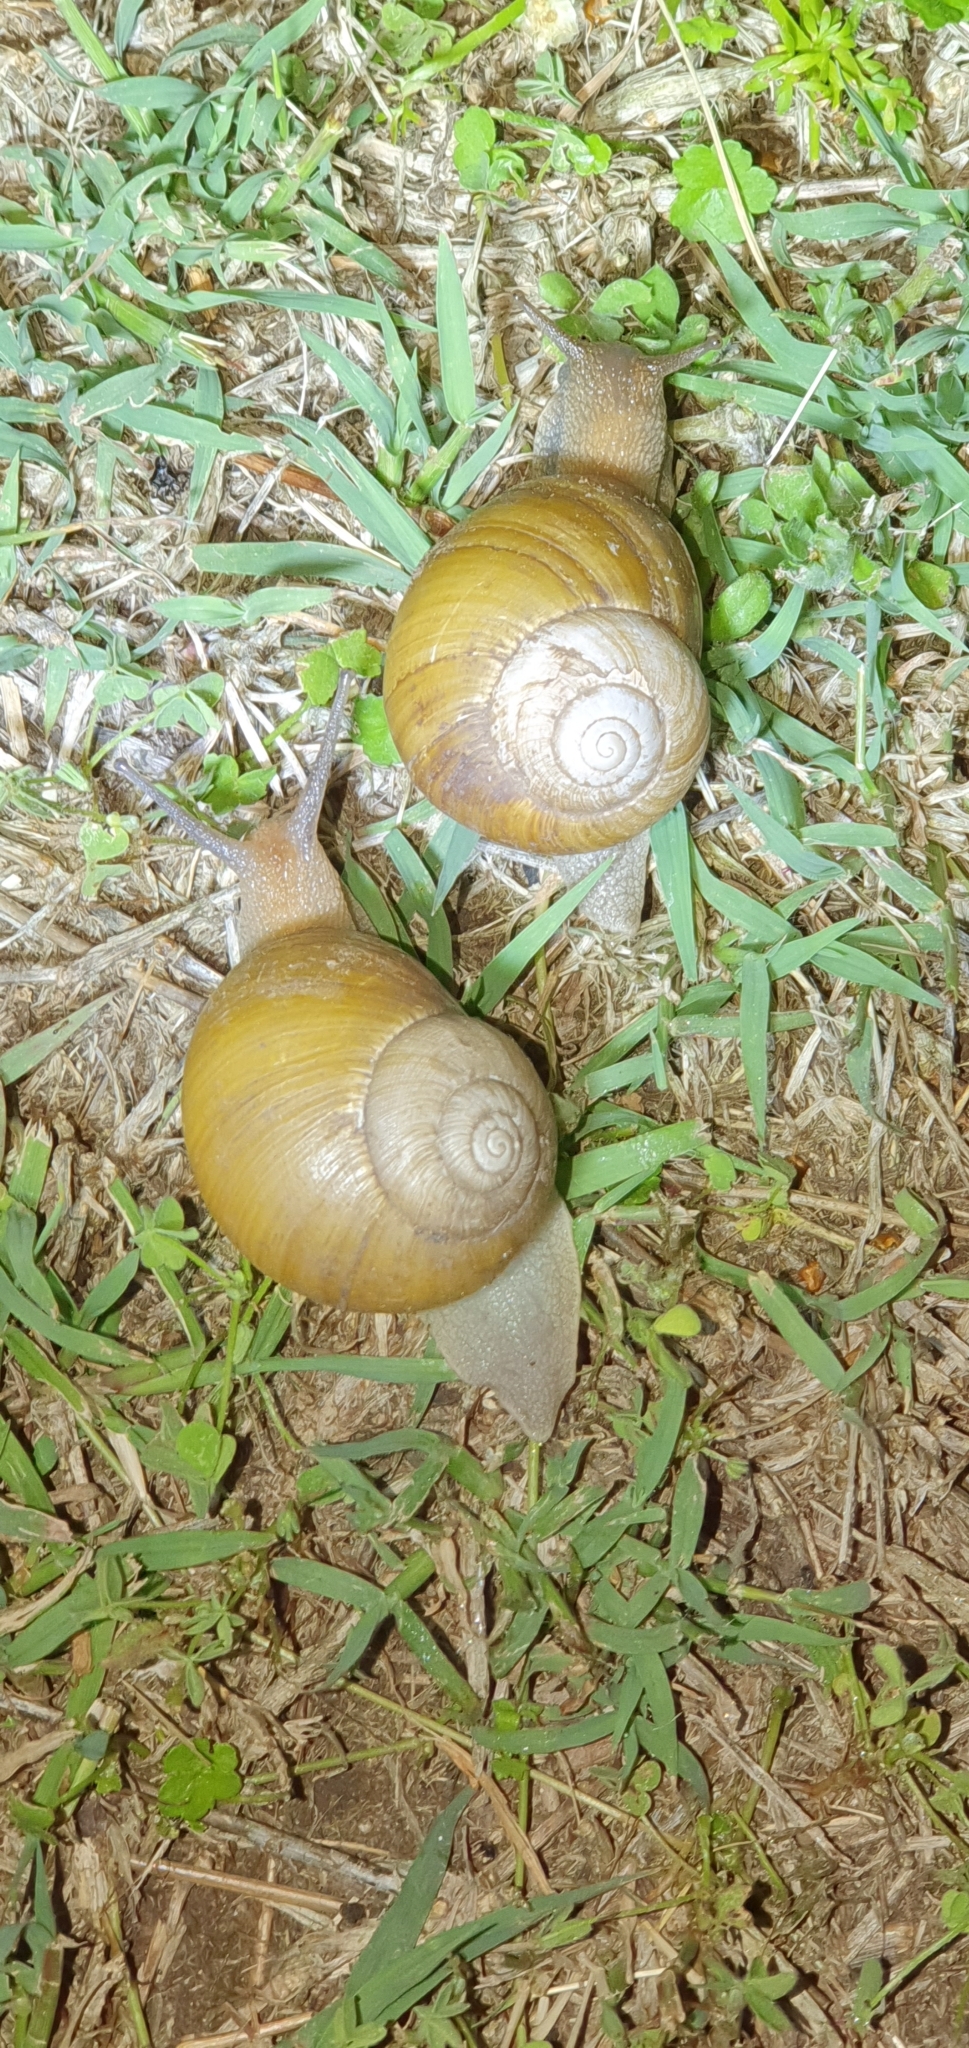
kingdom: Animalia
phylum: Mollusca
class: Gastropoda
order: Stylommatophora
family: Camaenidae
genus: Xanthomelon
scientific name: Xanthomelon pachystylum
